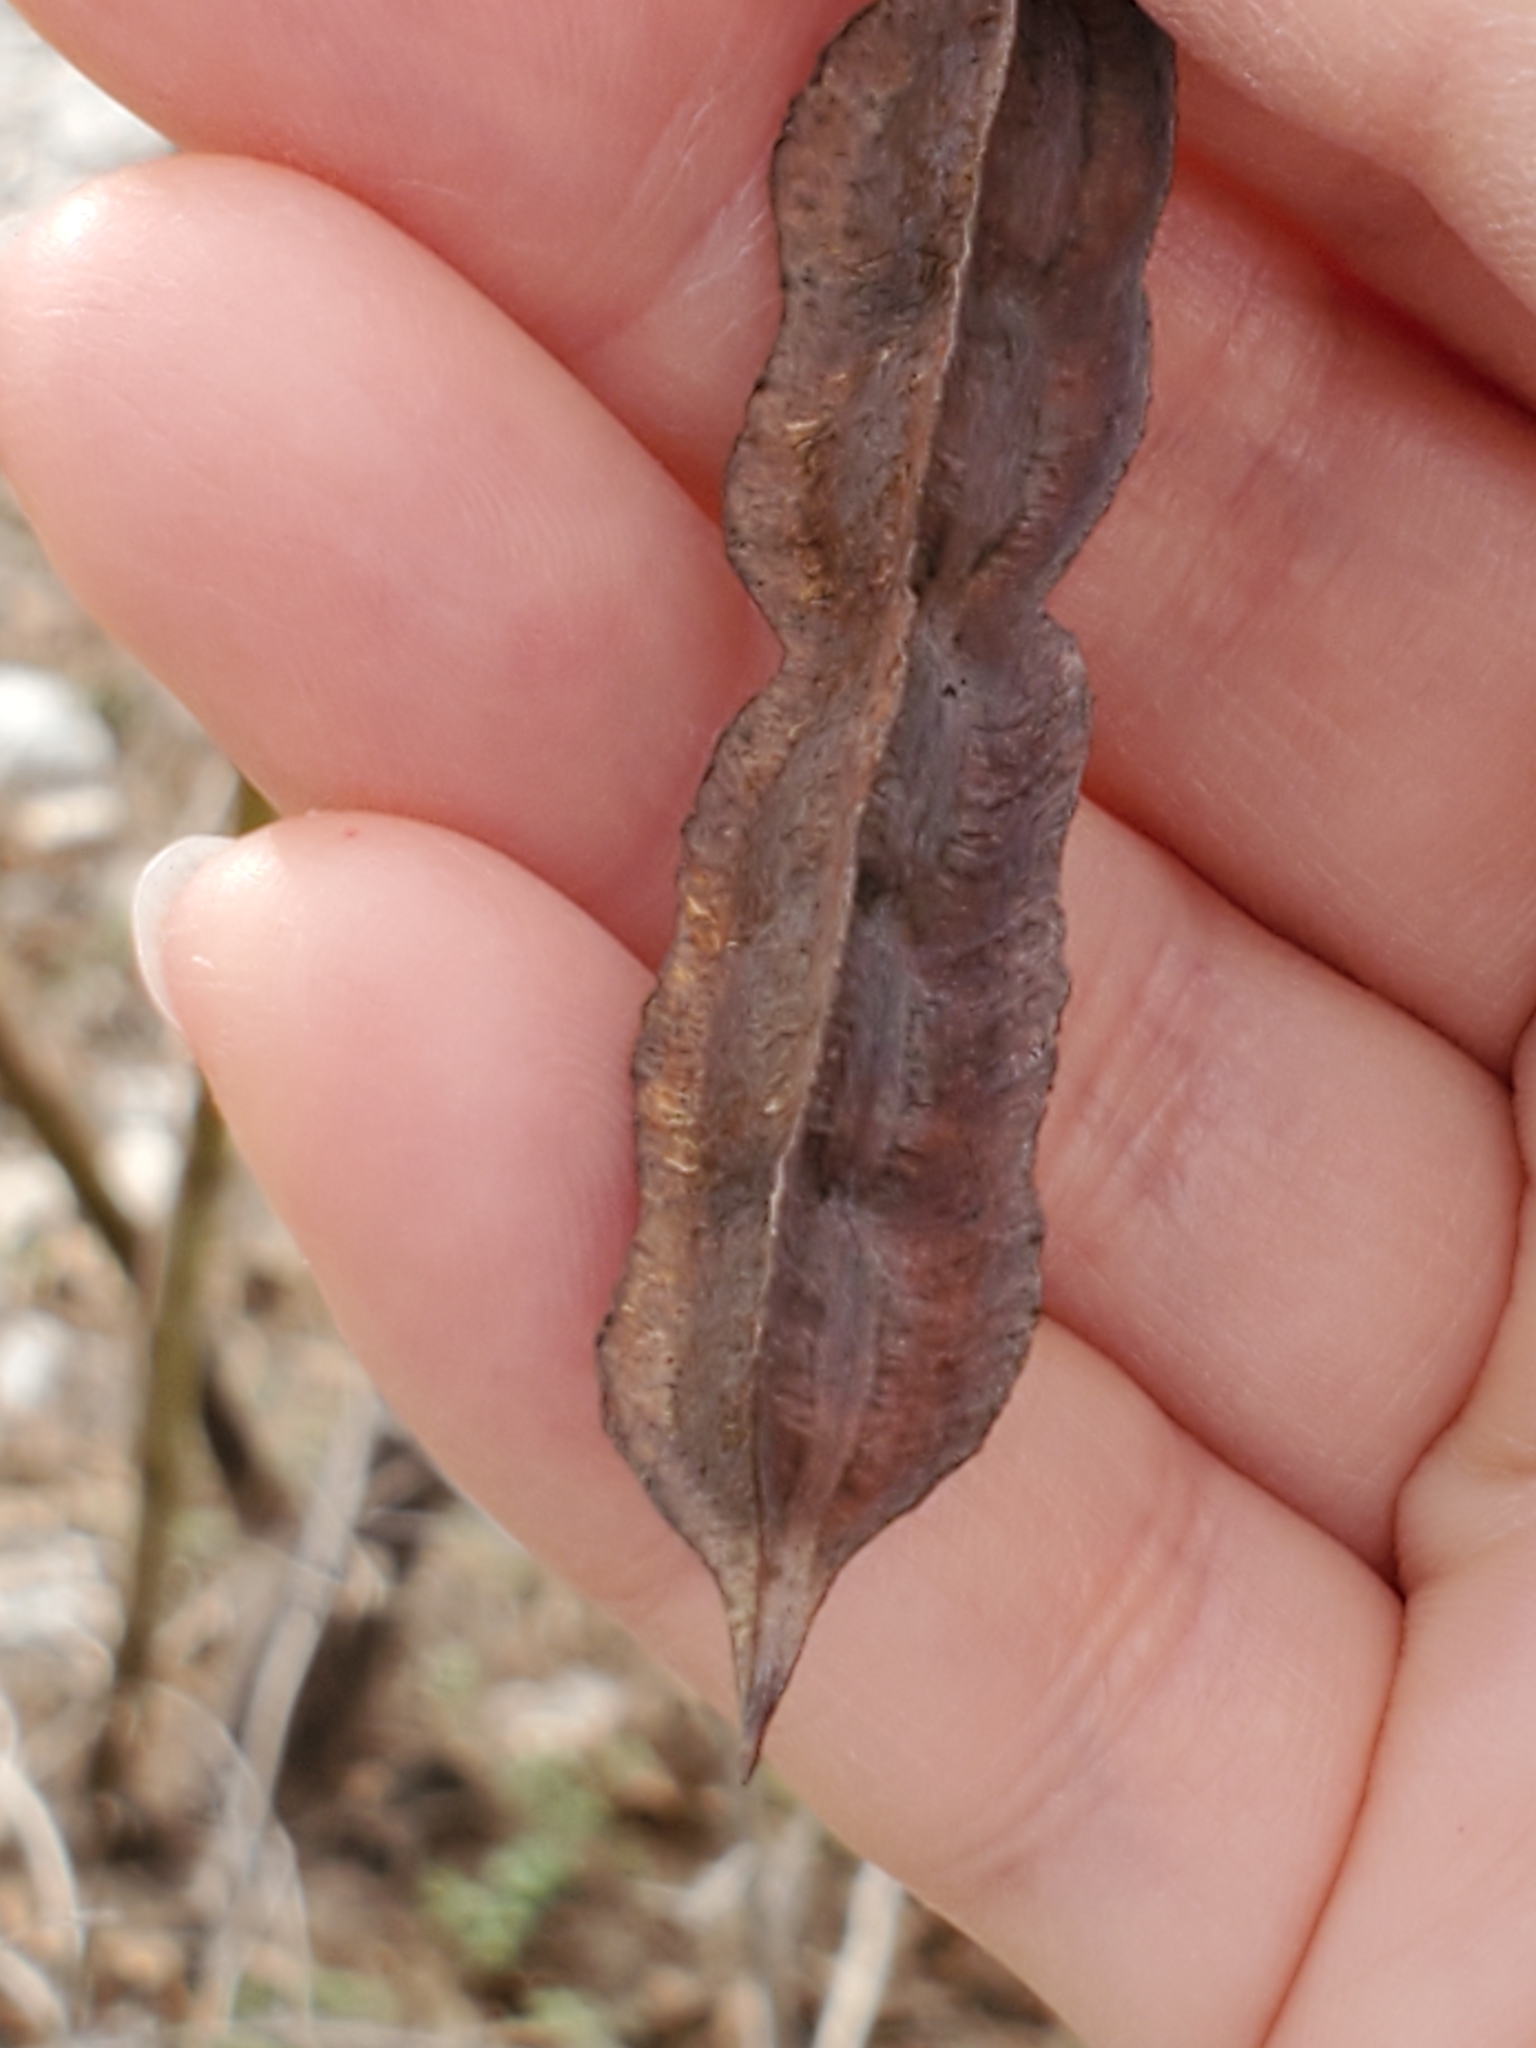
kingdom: Plantae
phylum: Tracheophyta
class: Magnoliopsida
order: Fabales
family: Fabaceae
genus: Sesbania
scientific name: Sesbania drummondii
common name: Poison-bean
